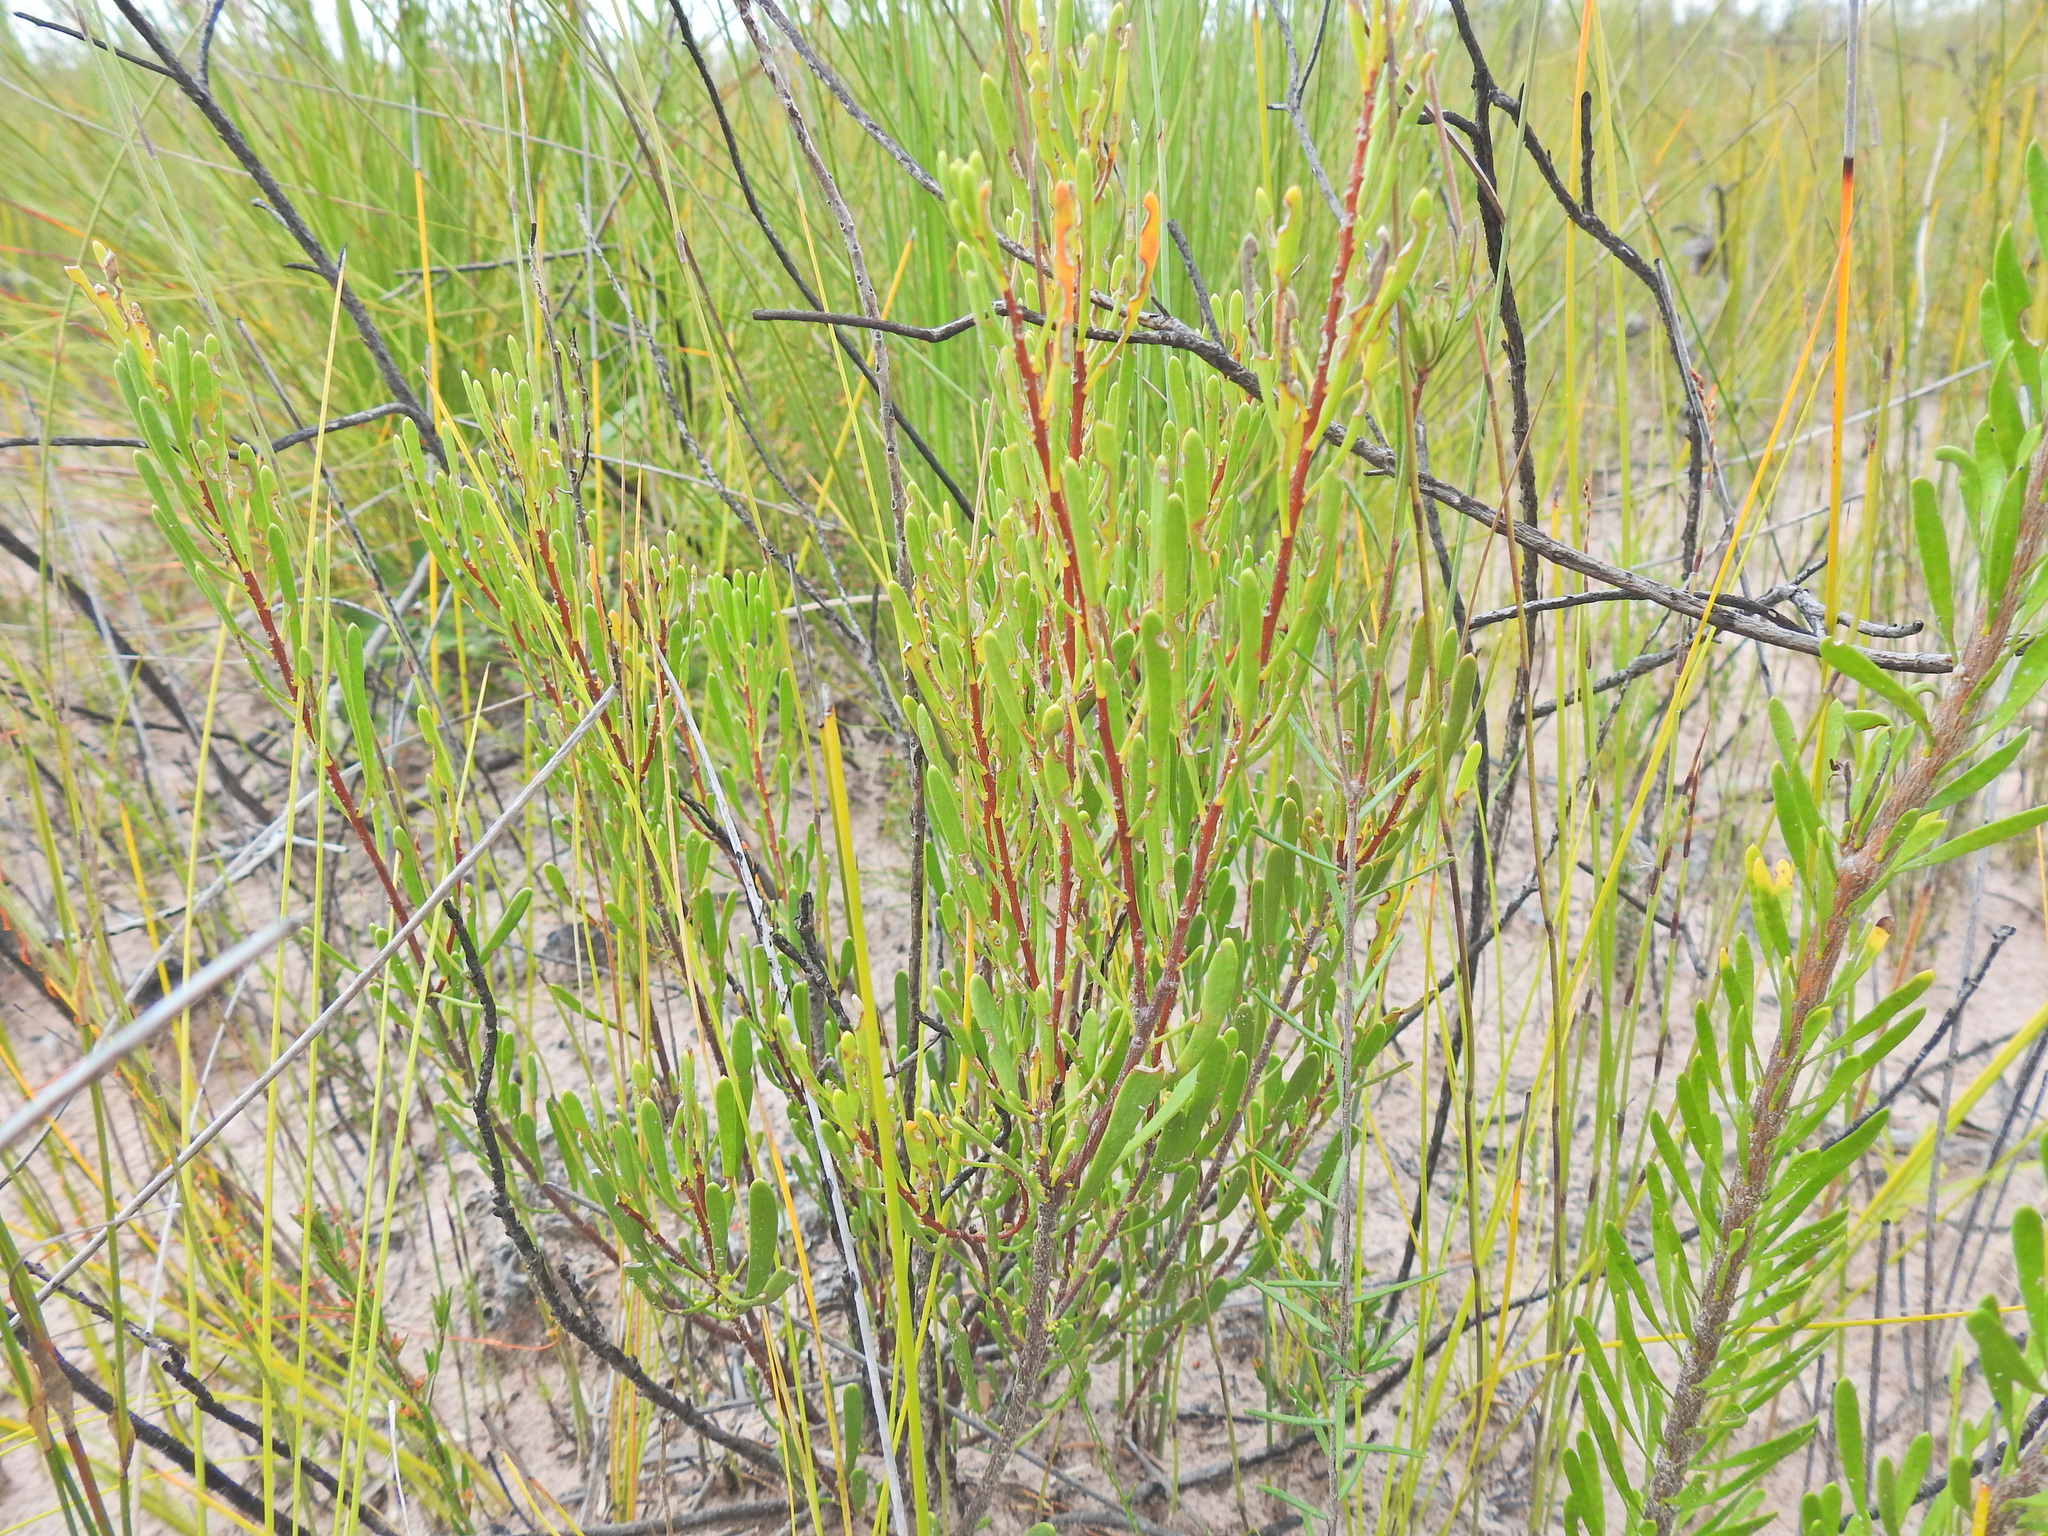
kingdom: Plantae
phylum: Tracheophyta
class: Magnoliopsida
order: Proteales
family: Proteaceae
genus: Strangea
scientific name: Strangea linearis
